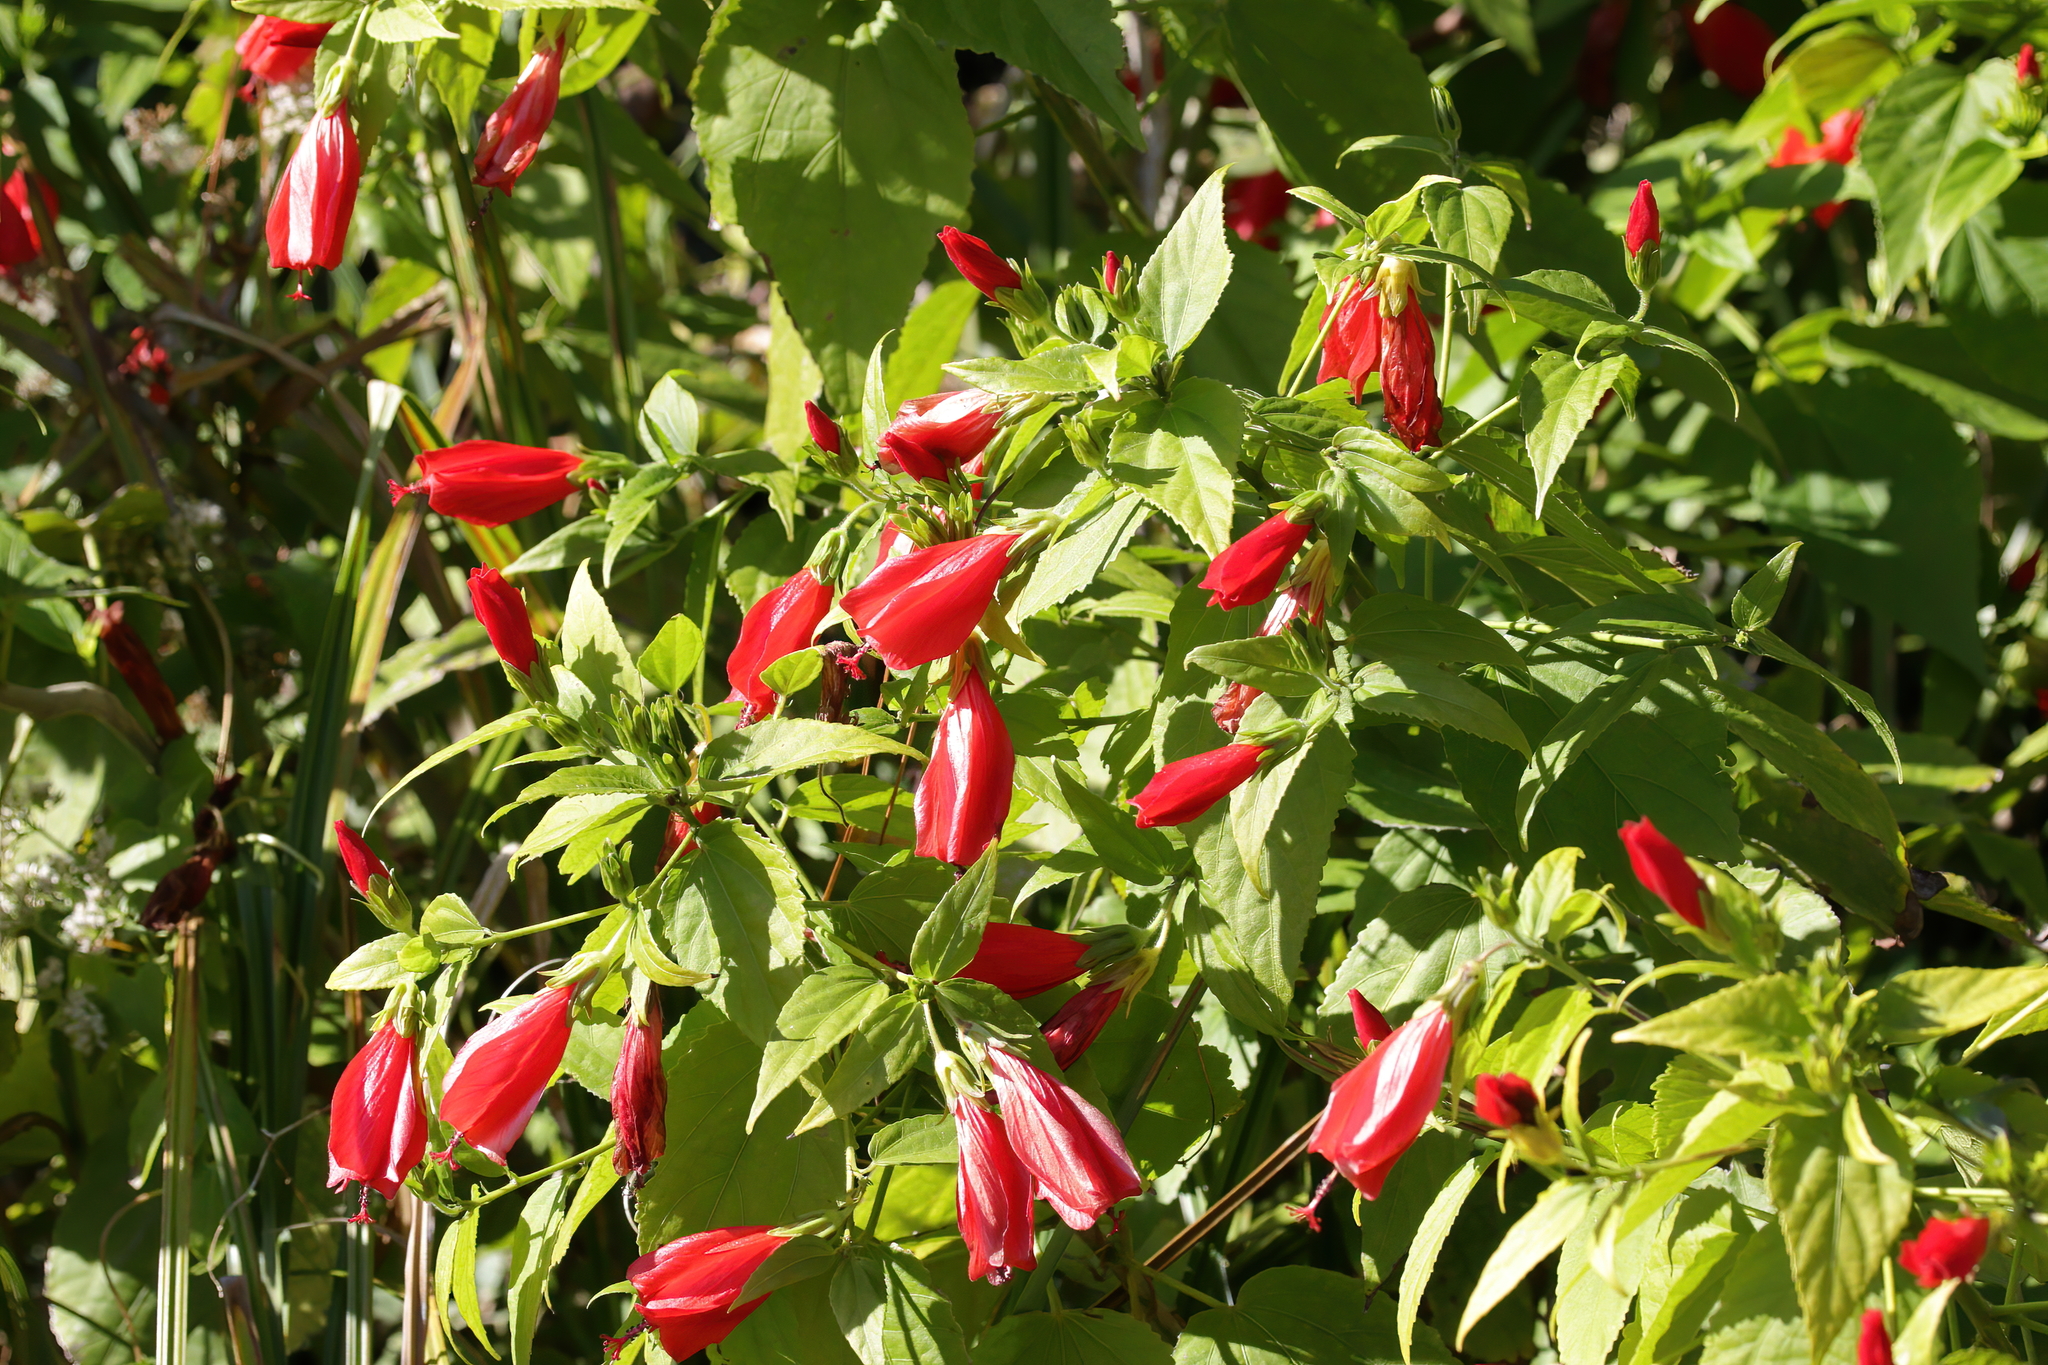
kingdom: Plantae
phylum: Tracheophyta
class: Magnoliopsida
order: Malvales
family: Malvaceae
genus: Malvaviscus
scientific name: Malvaviscus penduliflorus
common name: Mazapan
